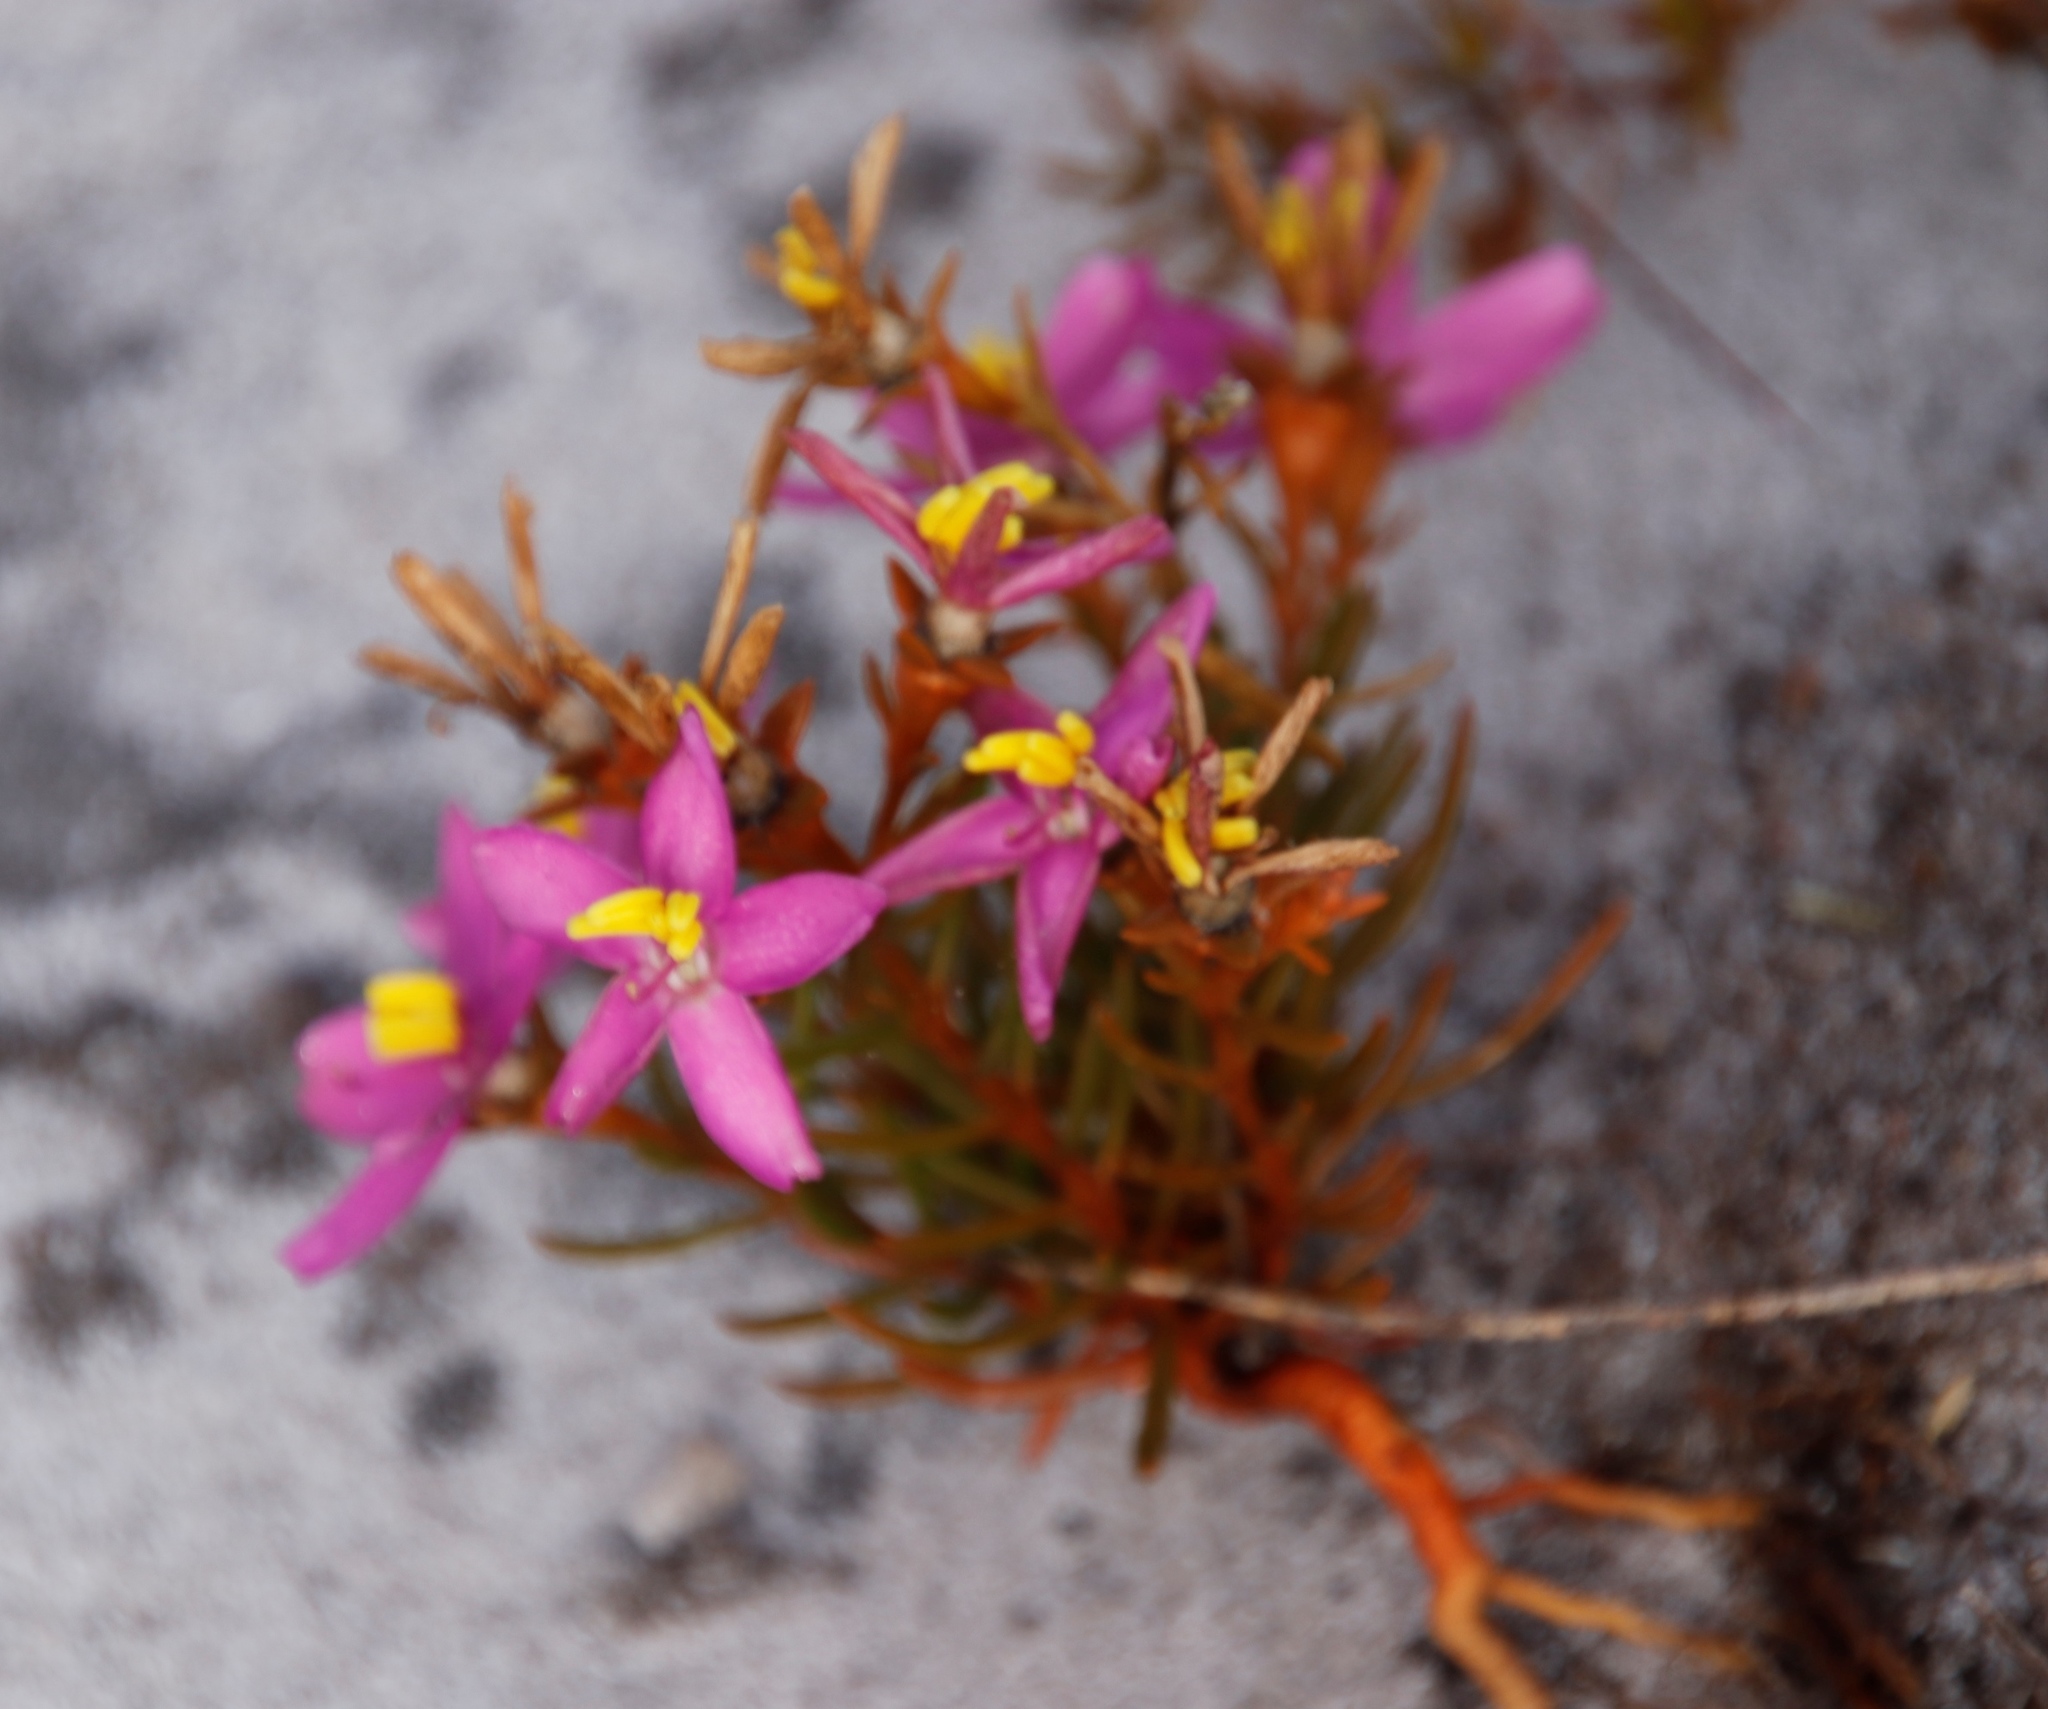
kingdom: Plantae
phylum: Tracheophyta
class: Magnoliopsida
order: Gentianales
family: Gentianaceae
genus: Chironia
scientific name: Chironia linoides
